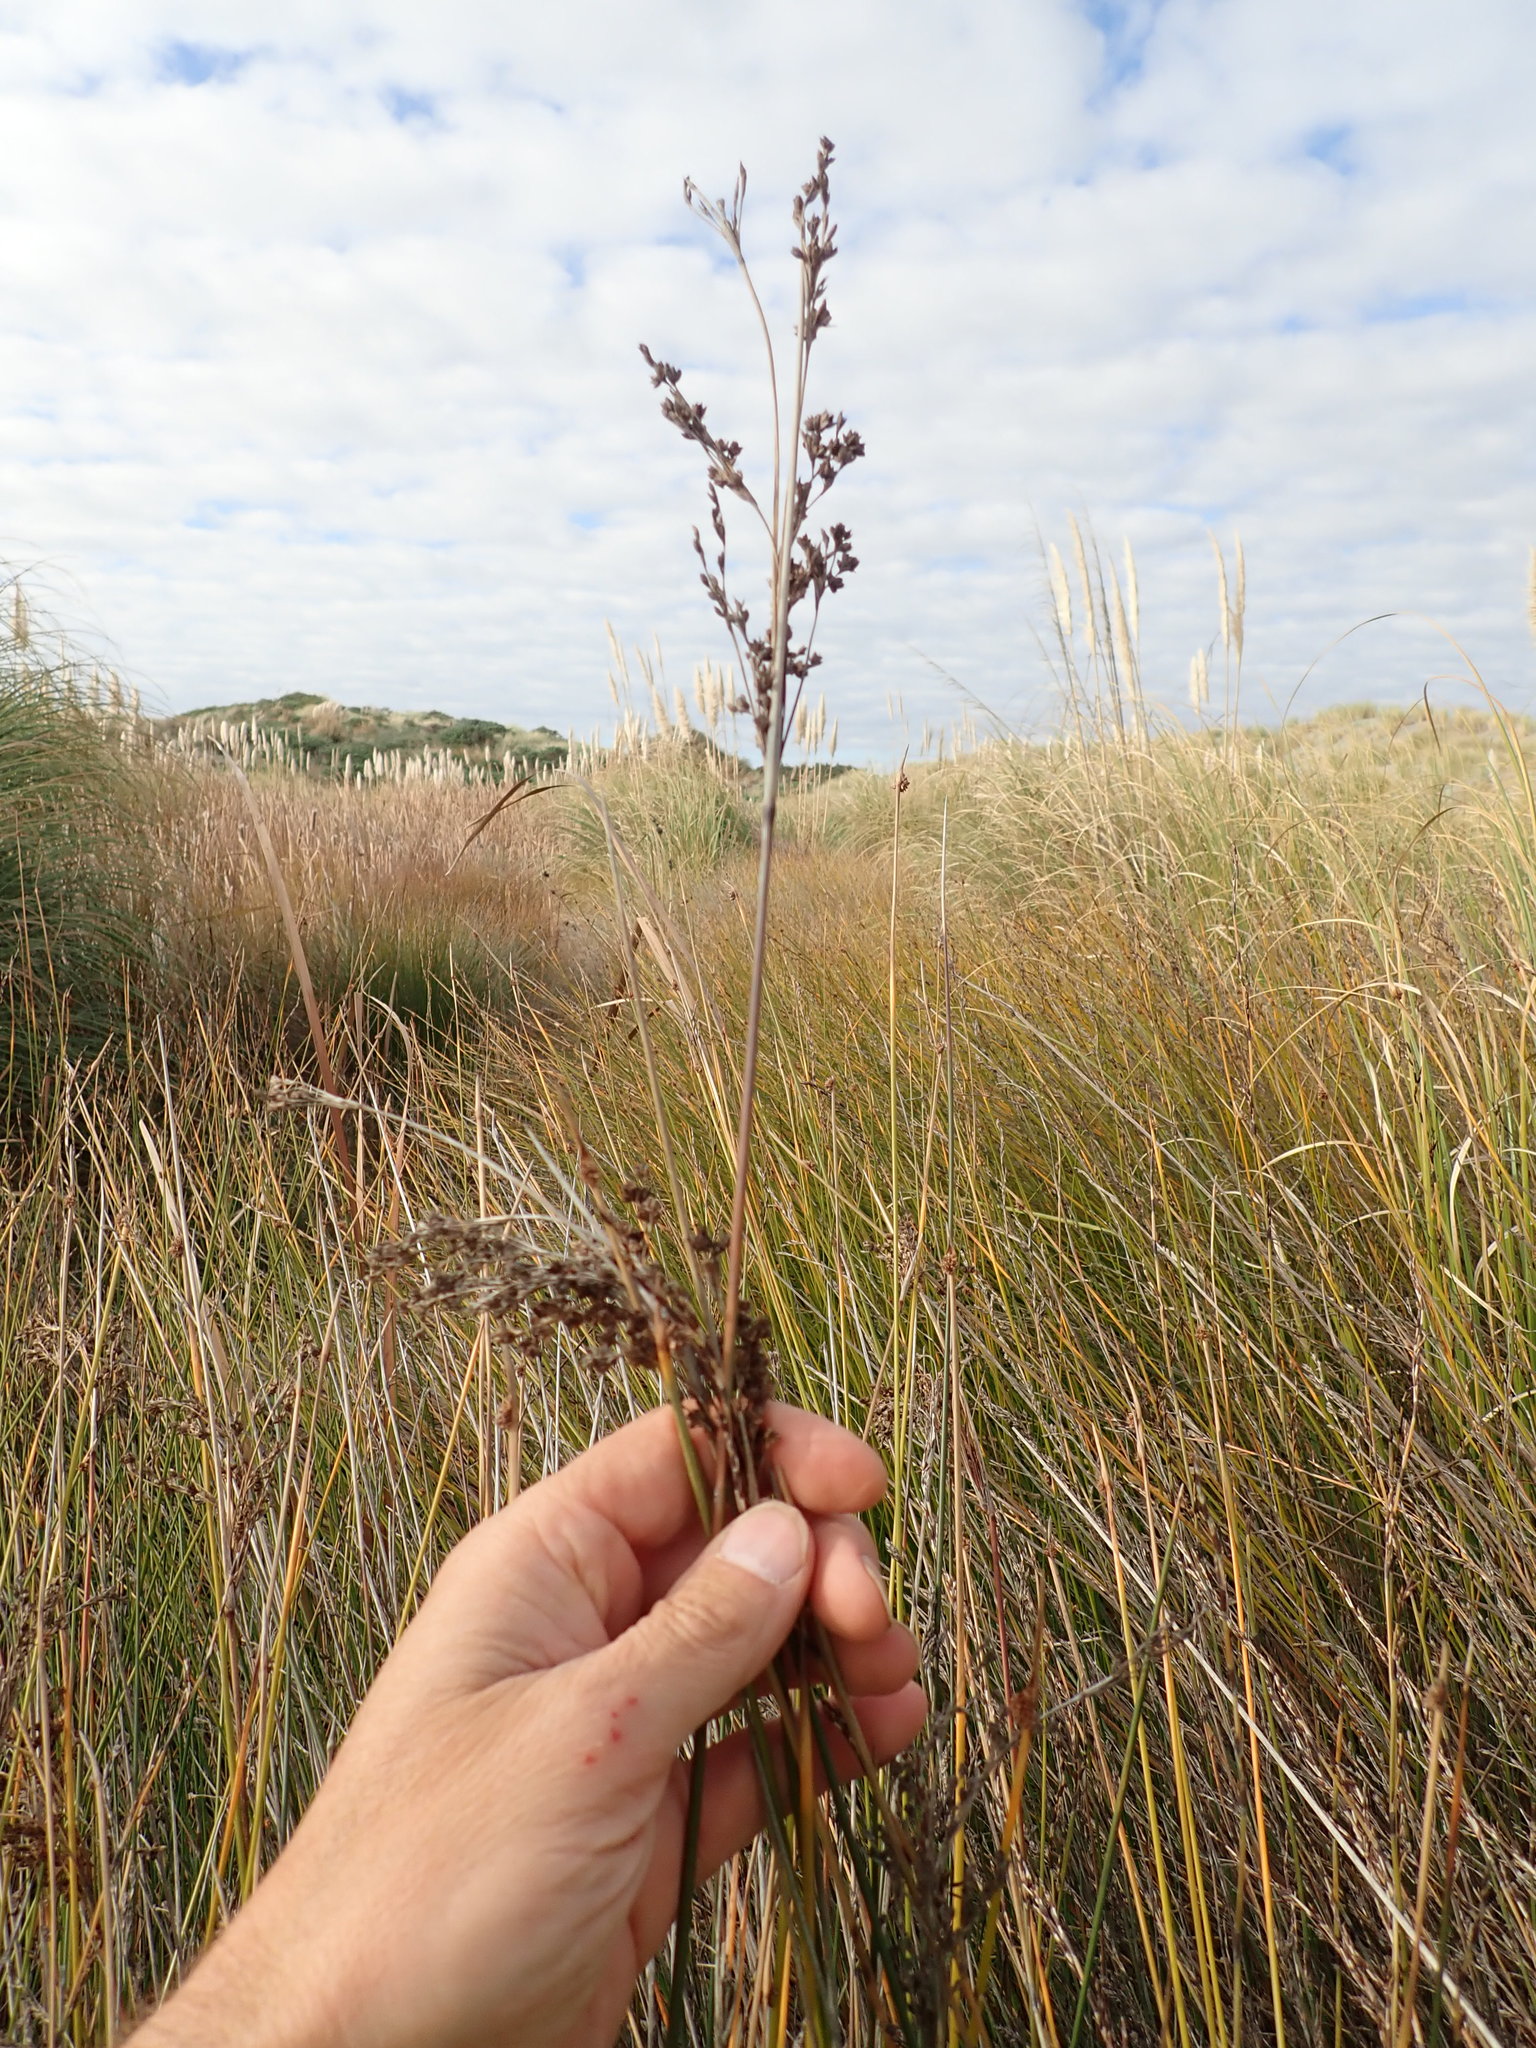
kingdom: Plantae
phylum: Tracheophyta
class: Liliopsida
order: Poales
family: Juncaceae
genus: Juncus
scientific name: Juncus kraussii
